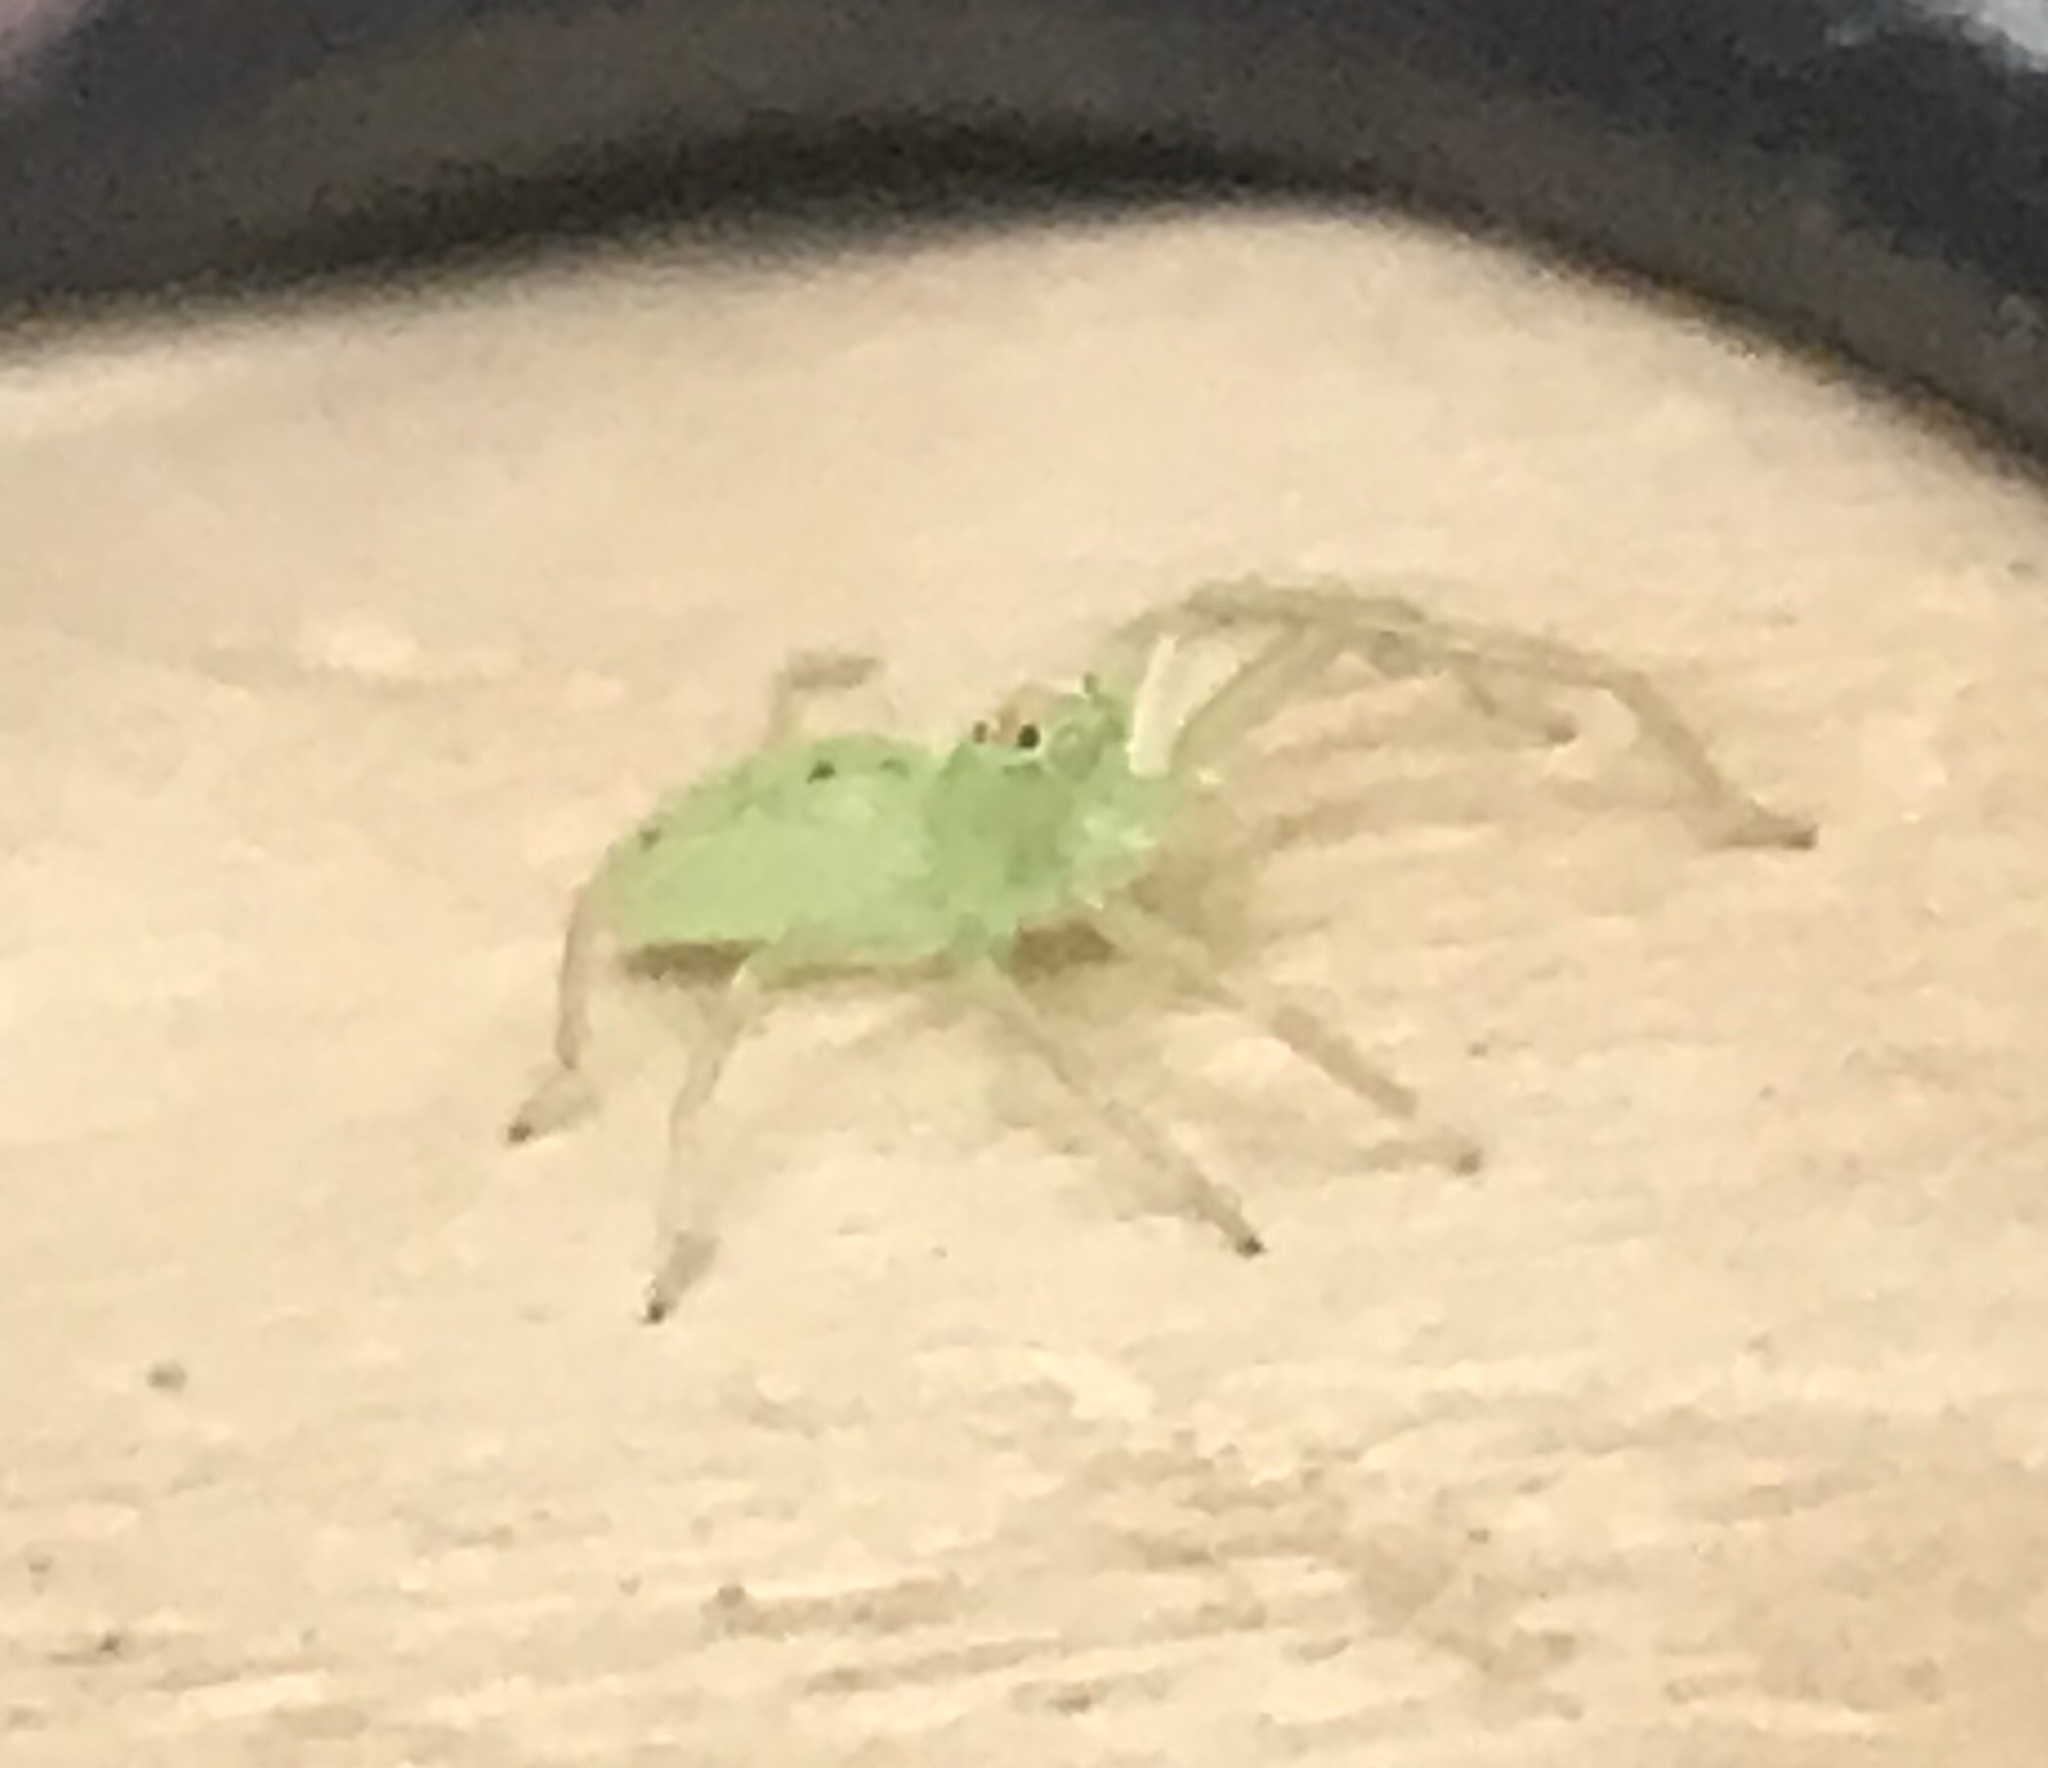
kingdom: Animalia
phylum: Arthropoda
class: Arachnida
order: Araneae
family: Salticidae
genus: Lyssomanes
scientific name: Lyssomanes viridis
